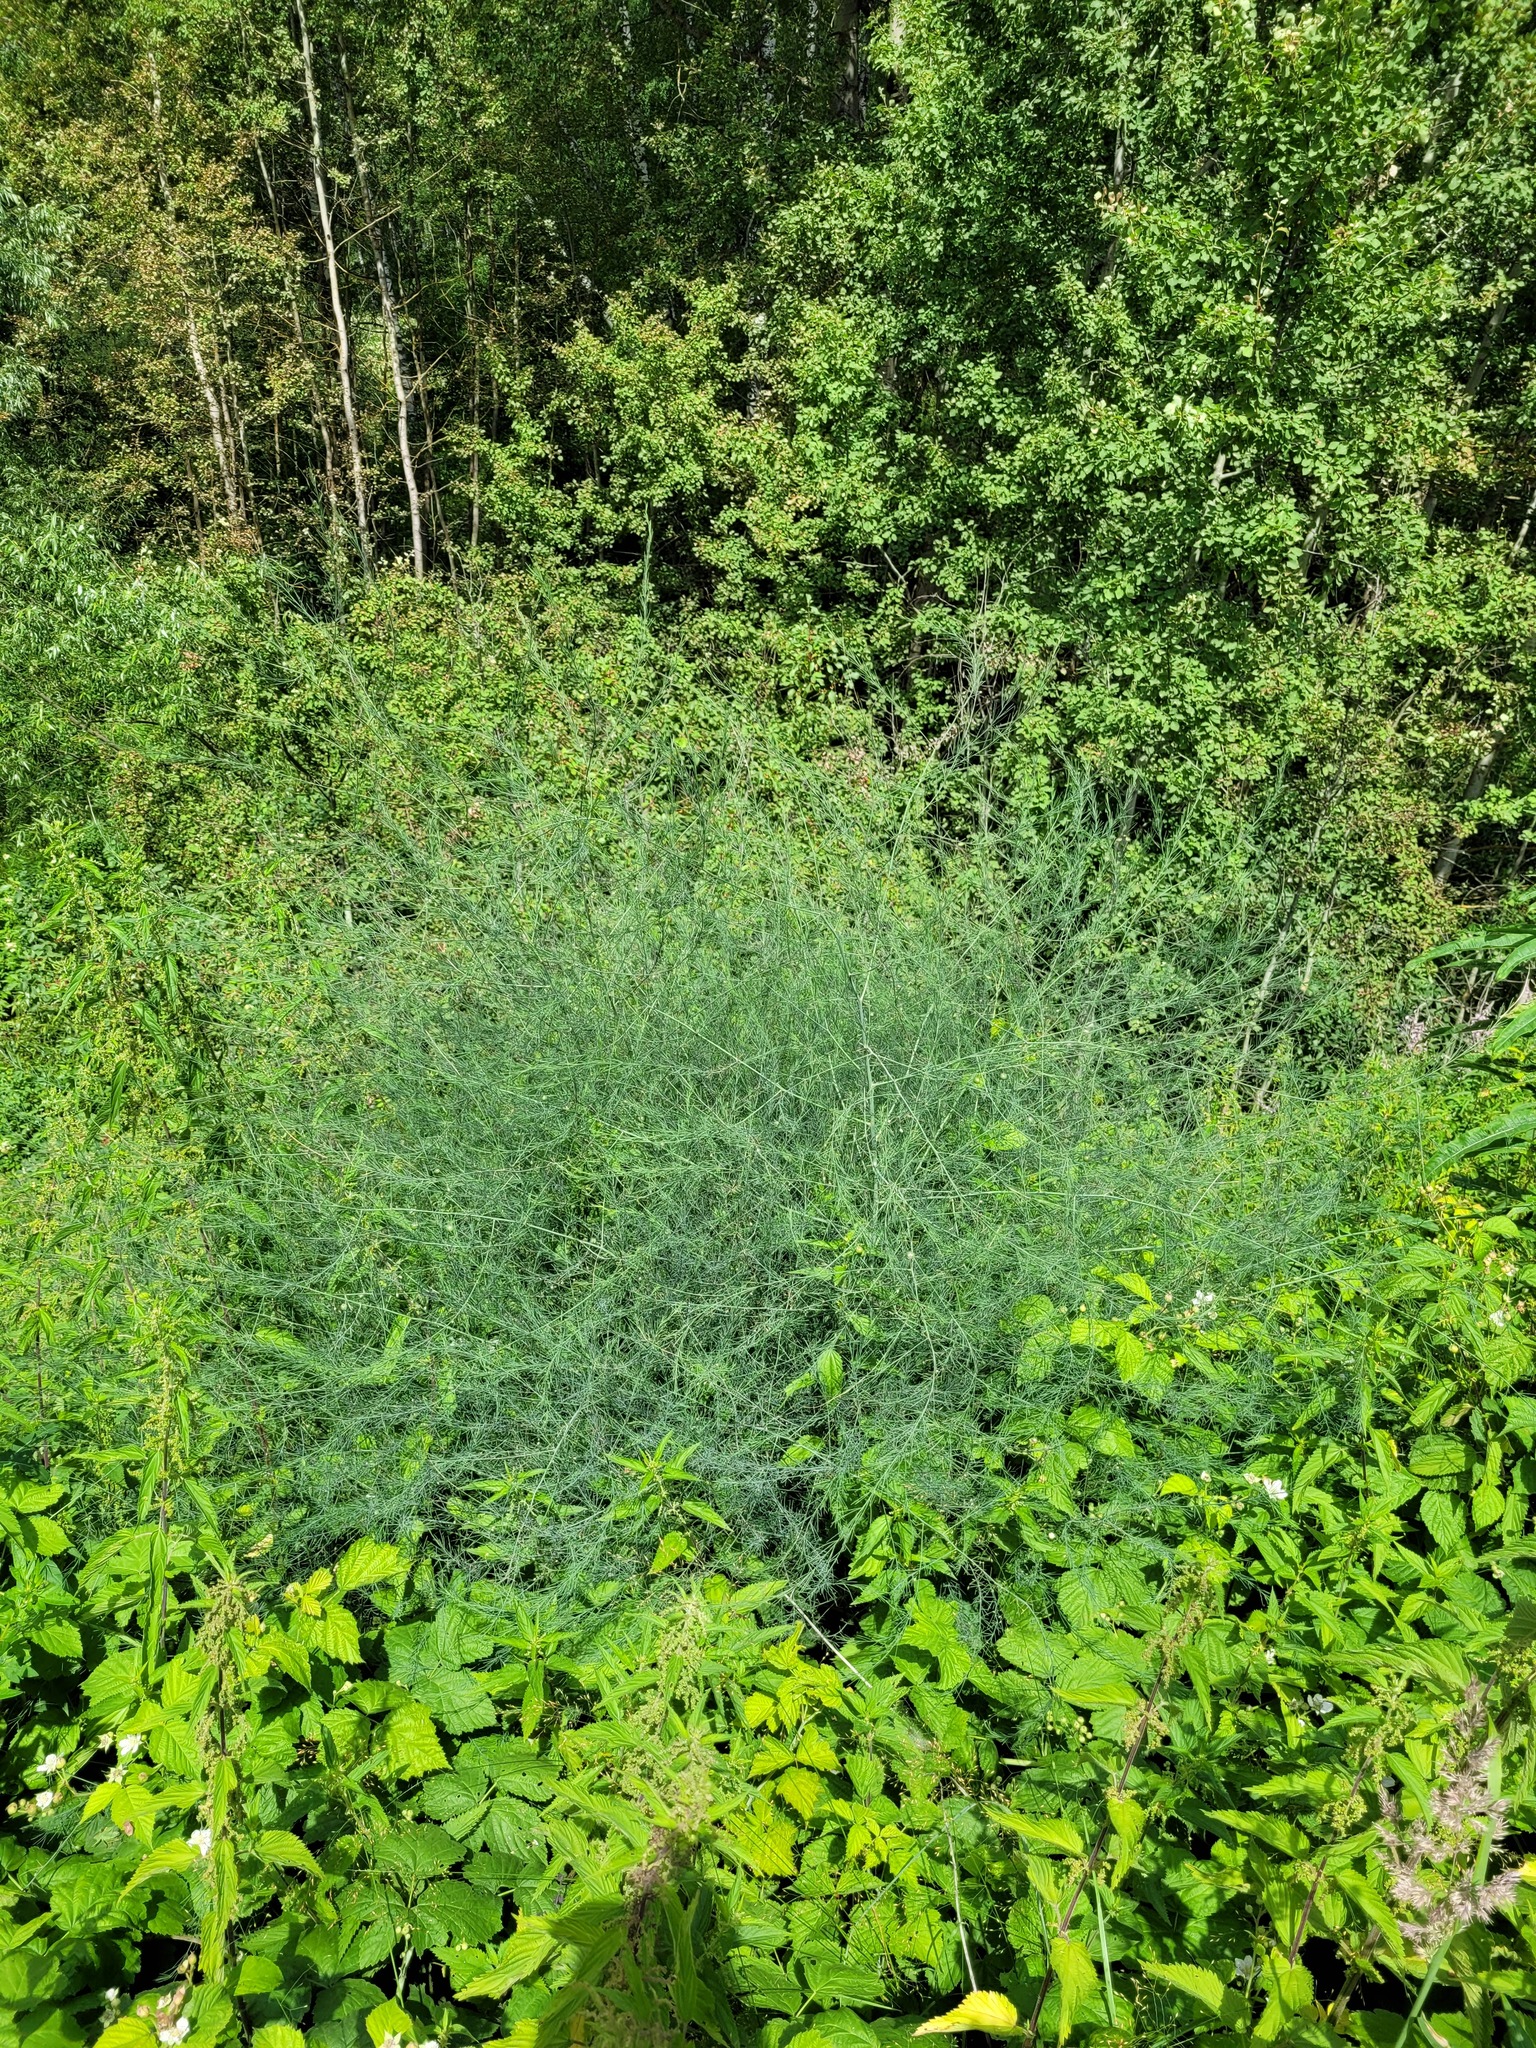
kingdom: Plantae
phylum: Tracheophyta
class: Liliopsida
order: Asparagales
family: Asparagaceae
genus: Asparagus
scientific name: Asparagus officinalis
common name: Garden asparagus
